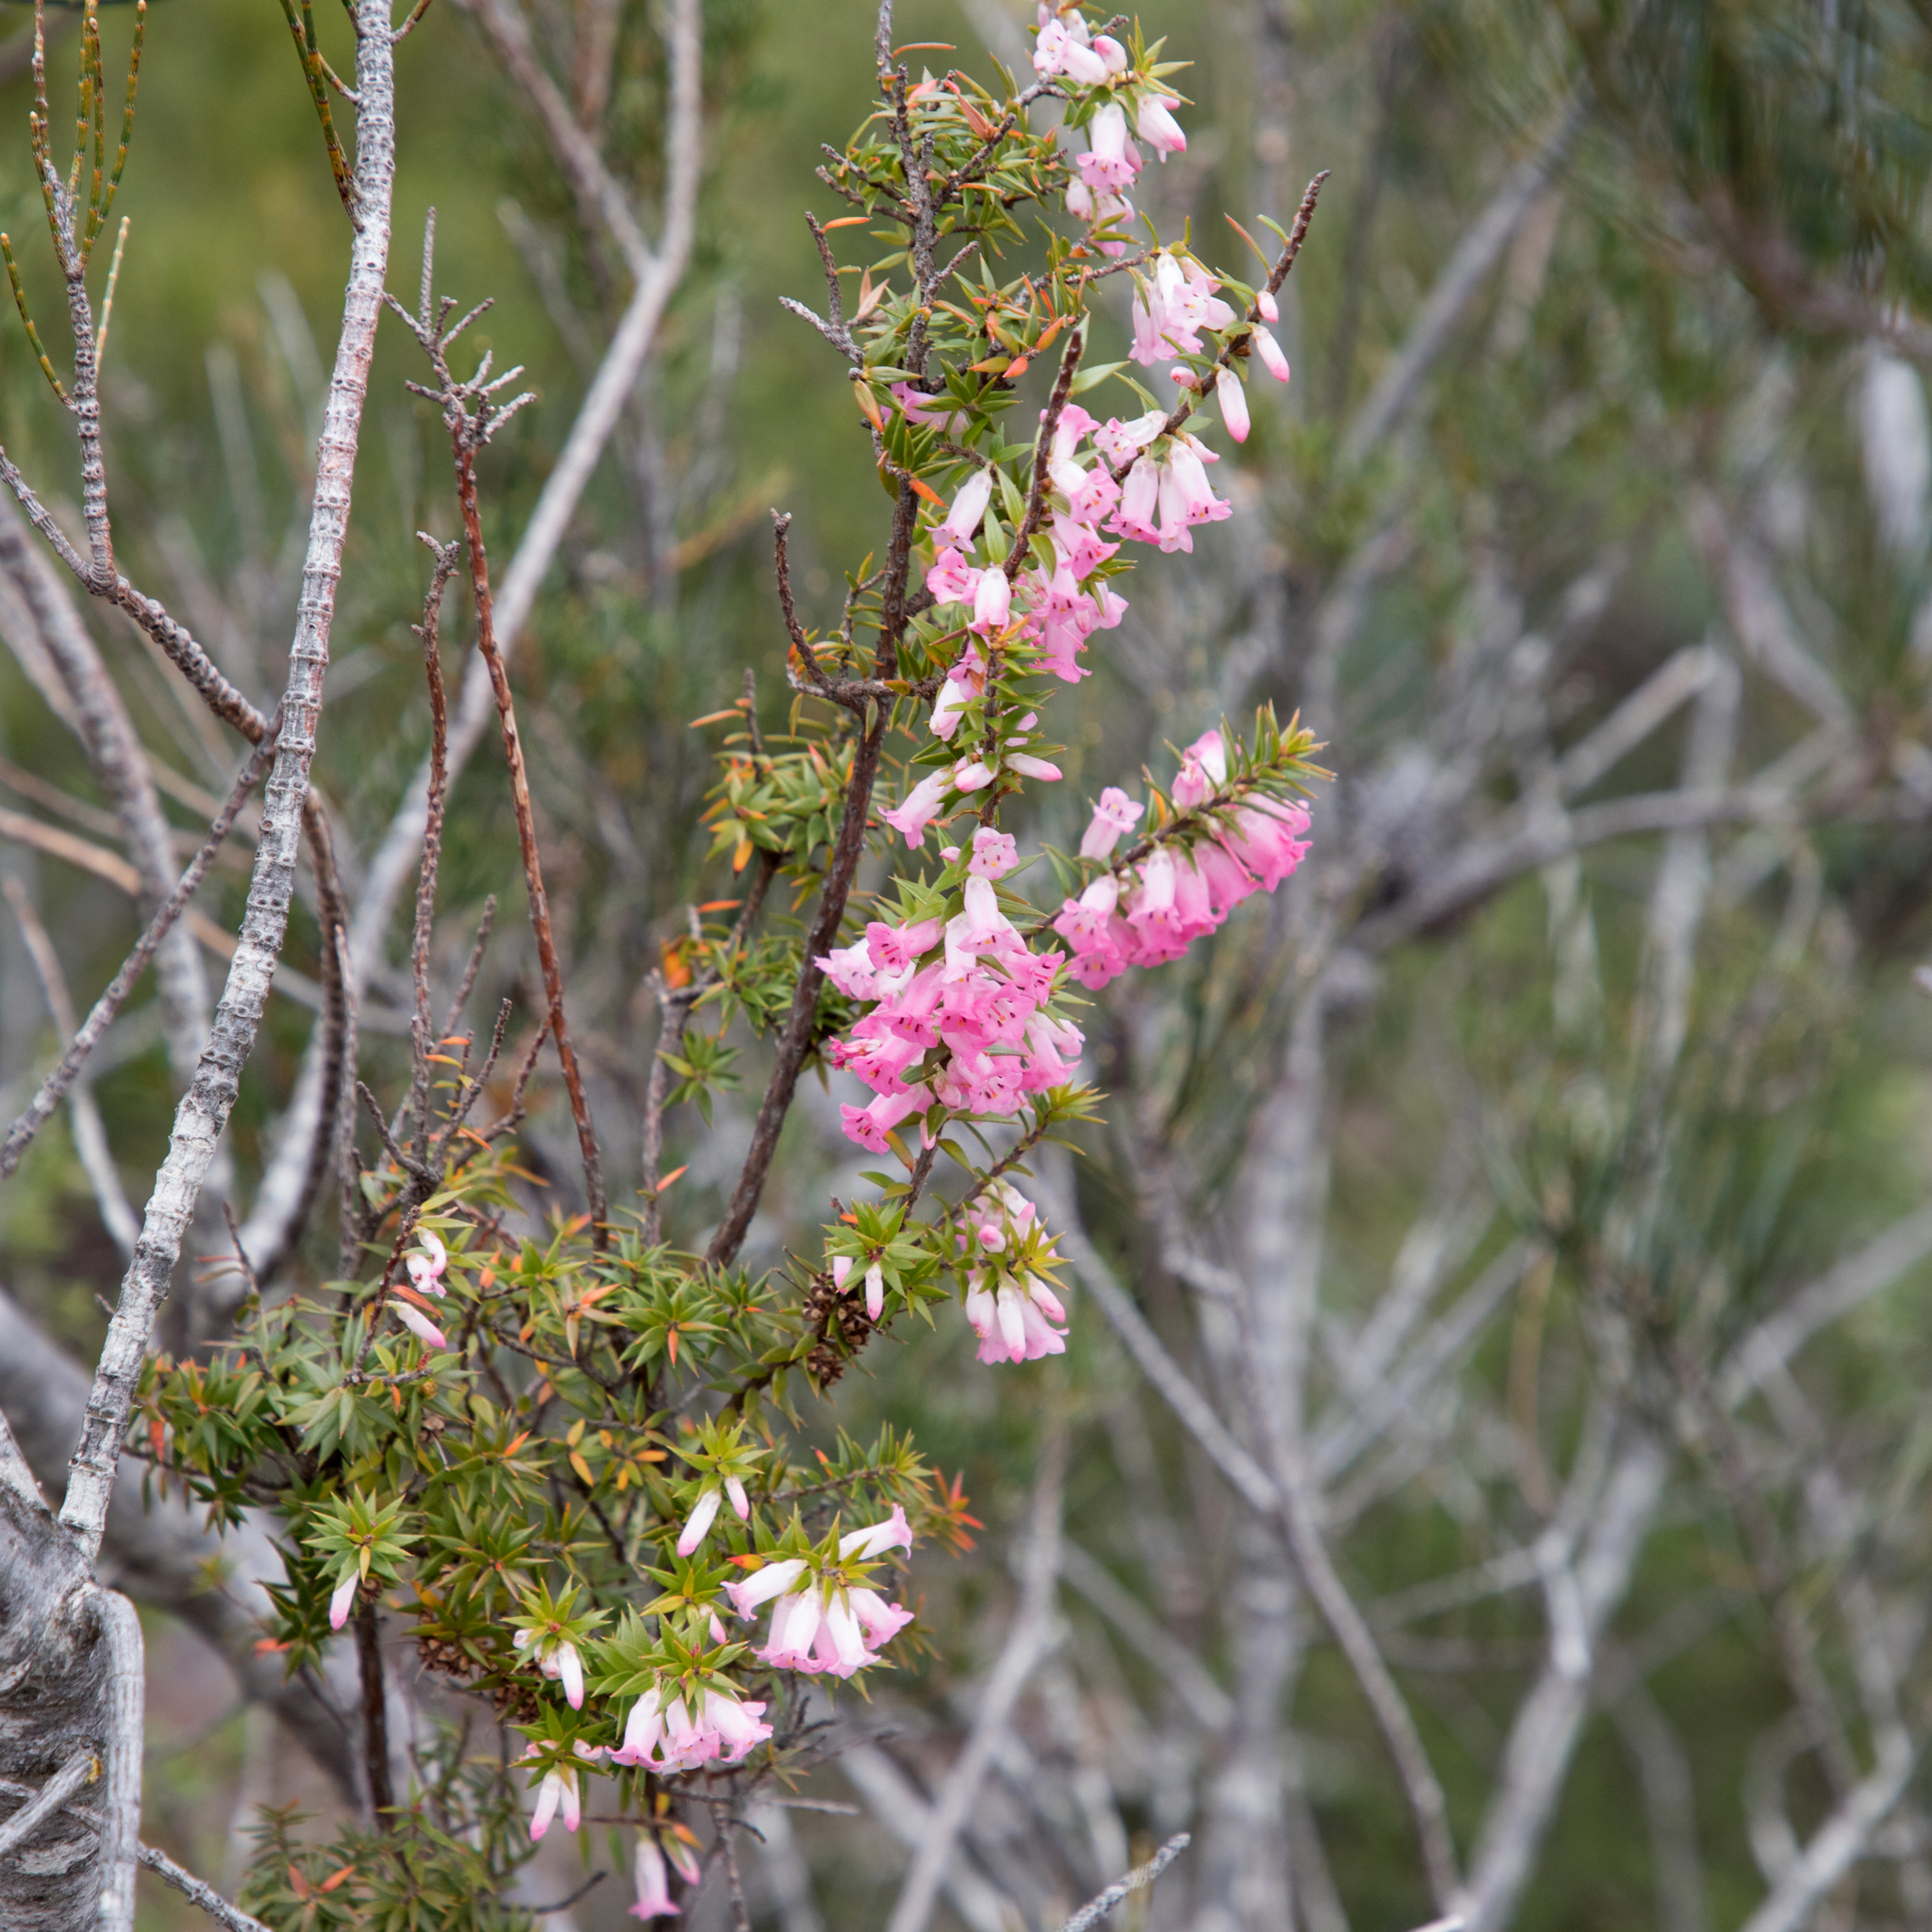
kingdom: Plantae
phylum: Tracheophyta
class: Magnoliopsida
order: Ericales
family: Ericaceae
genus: Epacris
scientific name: Epacris impressa
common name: Common-heath
